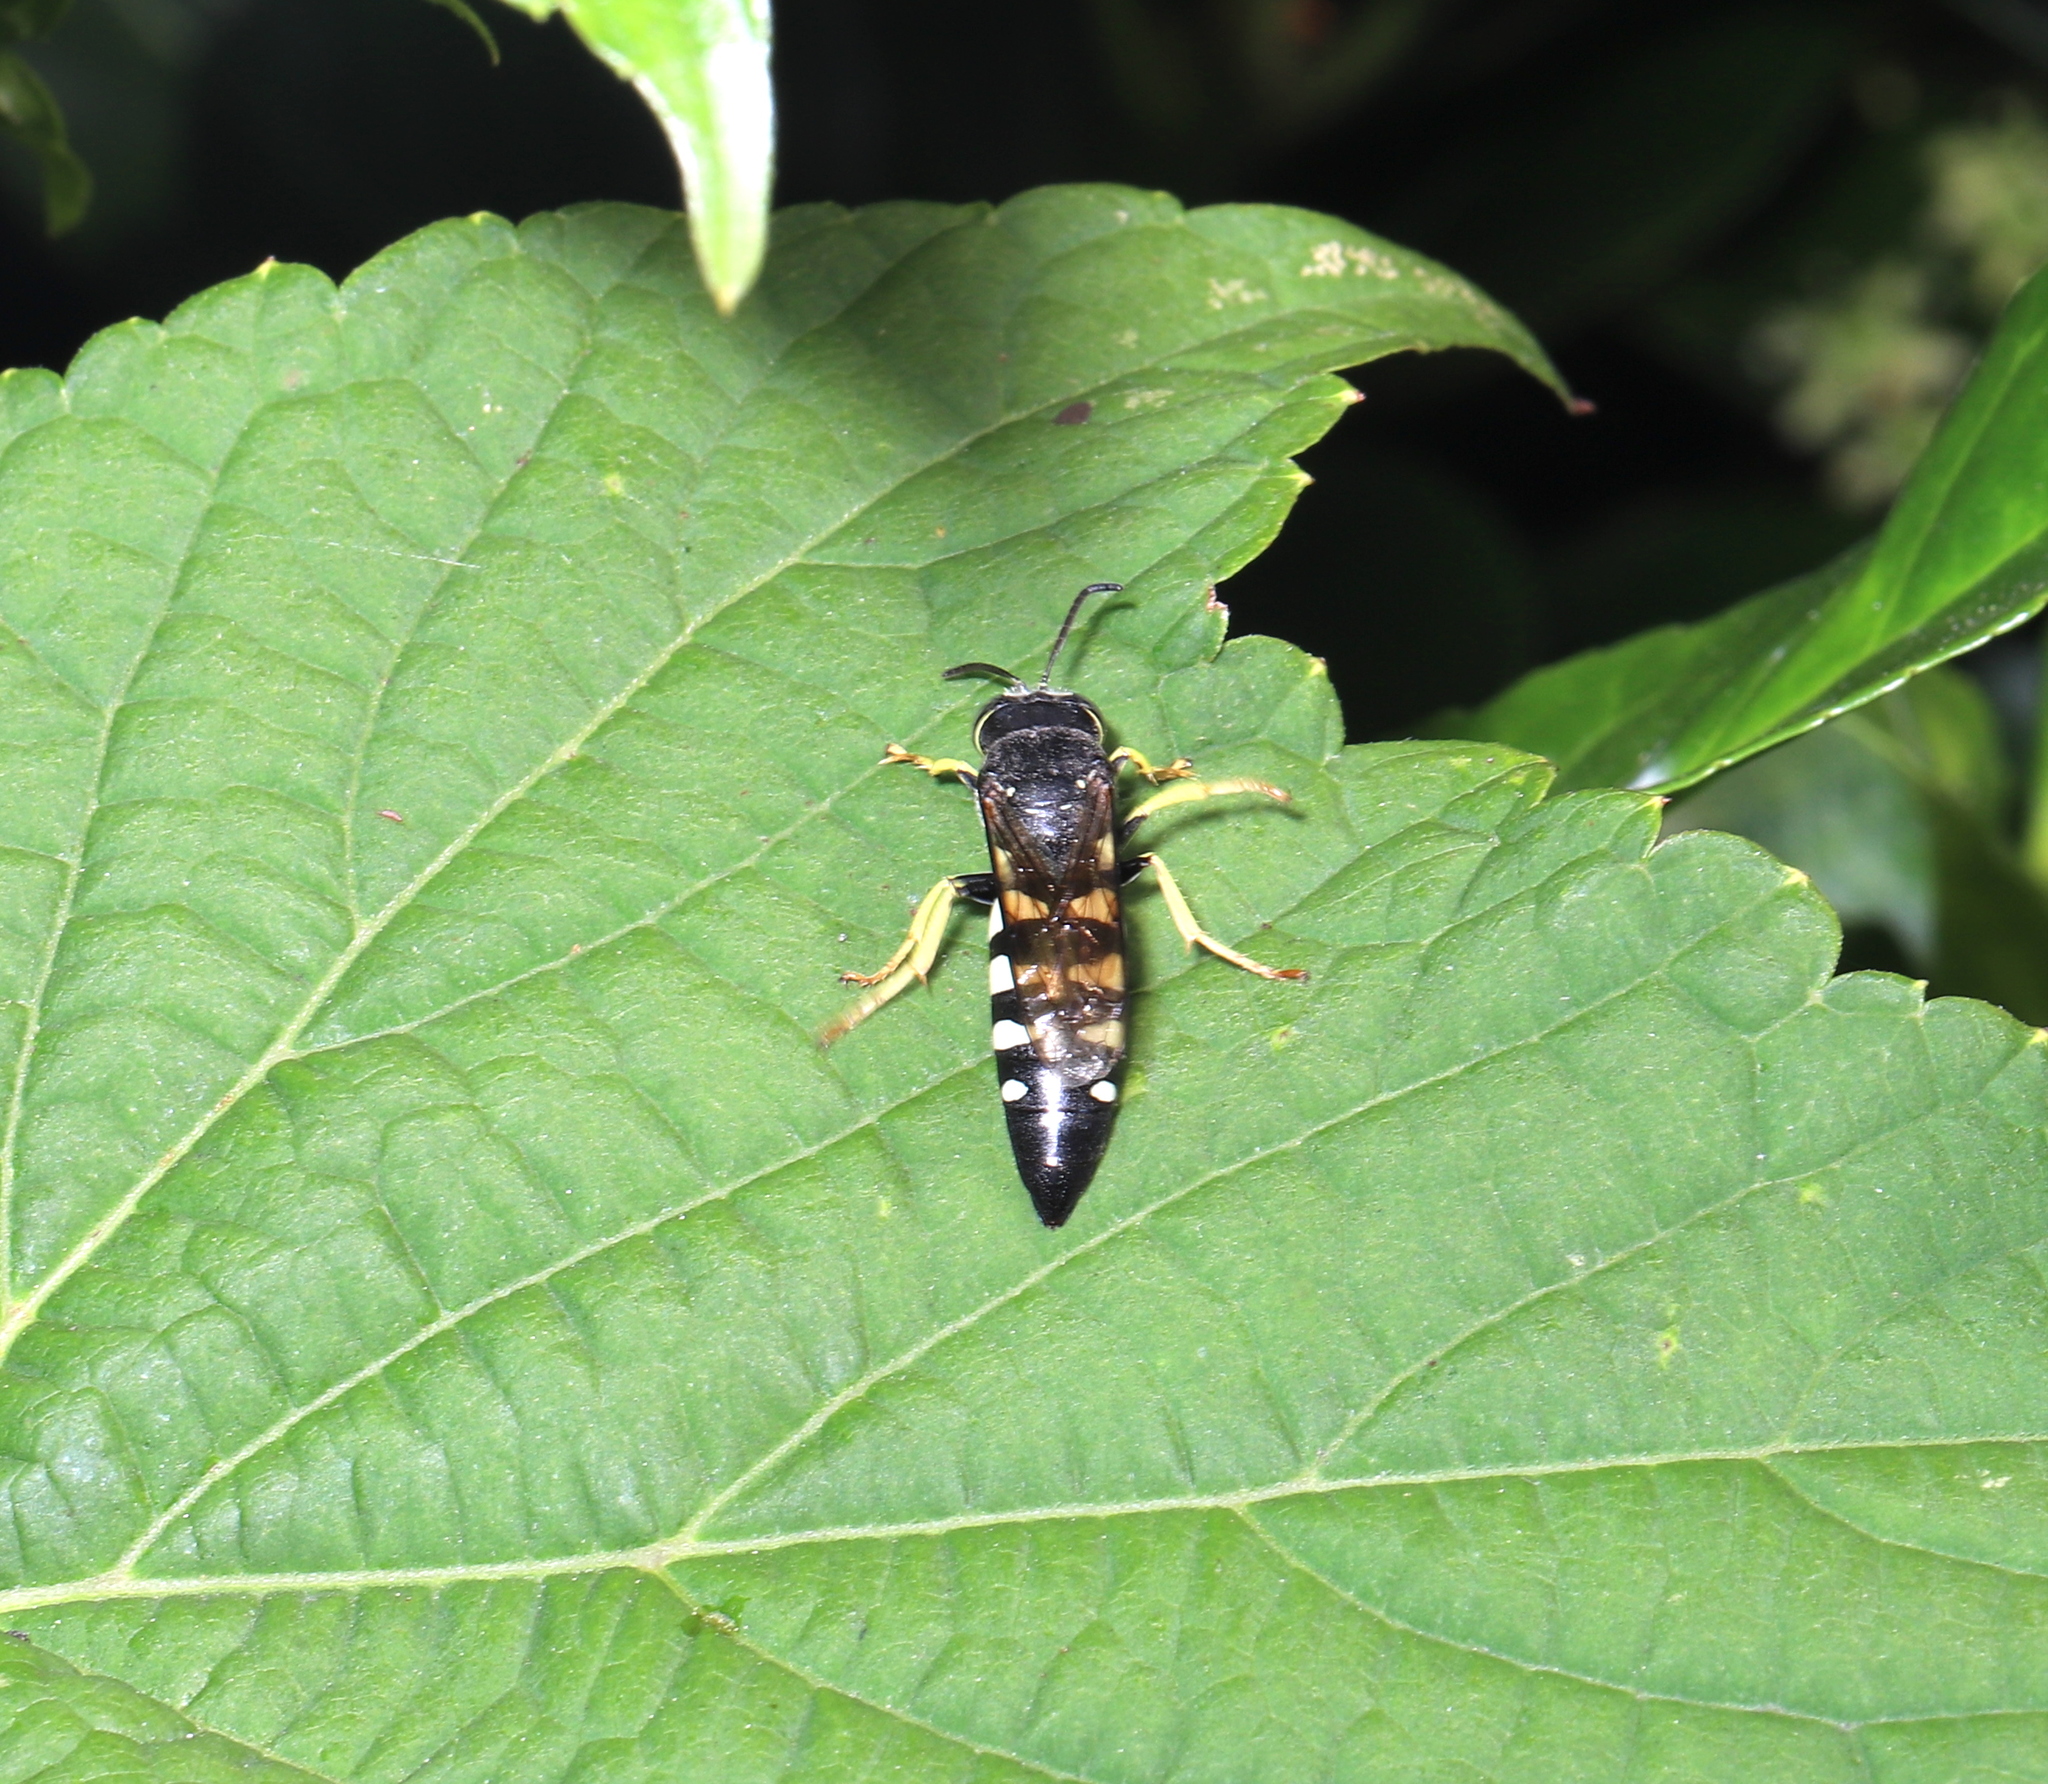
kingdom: Animalia
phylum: Arthropoda
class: Insecta
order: Hymenoptera
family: Crabronidae
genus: Bicyrtes
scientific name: Bicyrtes quadrifasciatus
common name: Four-banded stink bug hunter wasp
